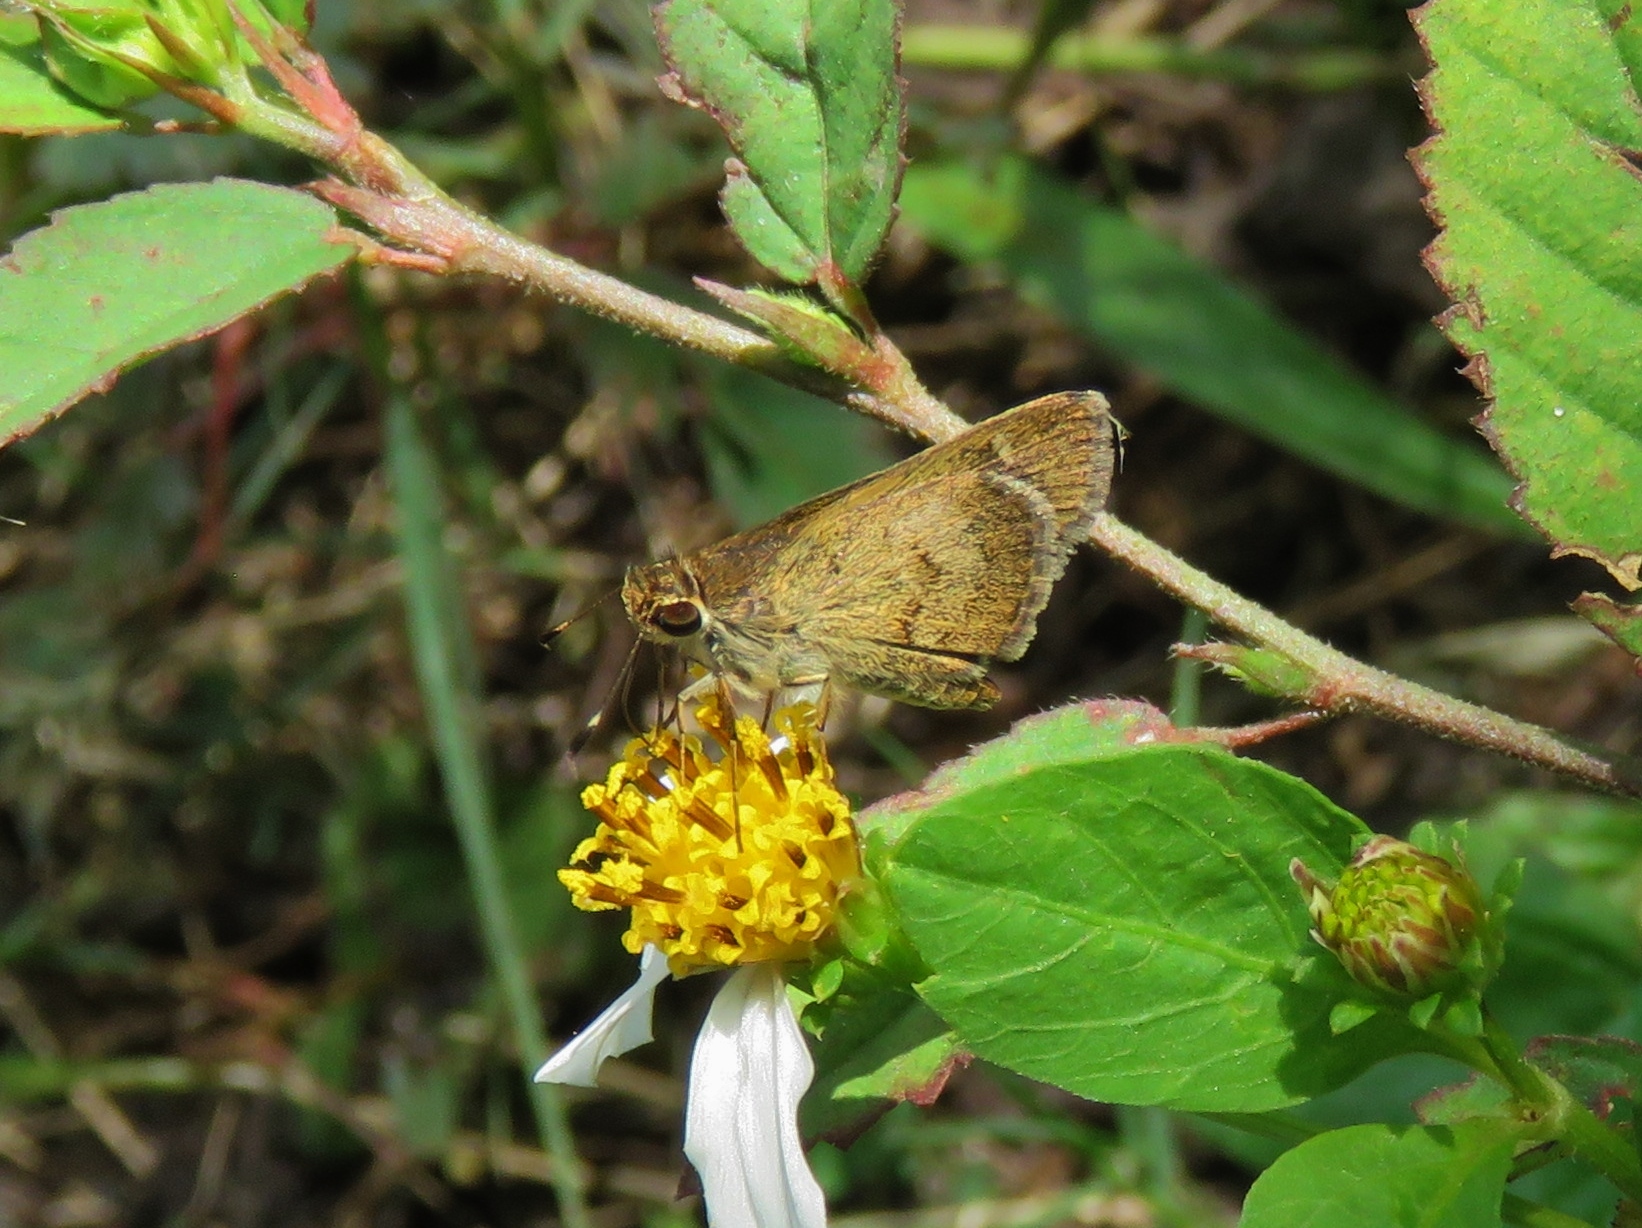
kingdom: Animalia
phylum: Arthropoda
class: Insecta
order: Lepidoptera
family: Hesperiidae
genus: Callimormus
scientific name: Callimormus saturnus
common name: Saturnus skipper
